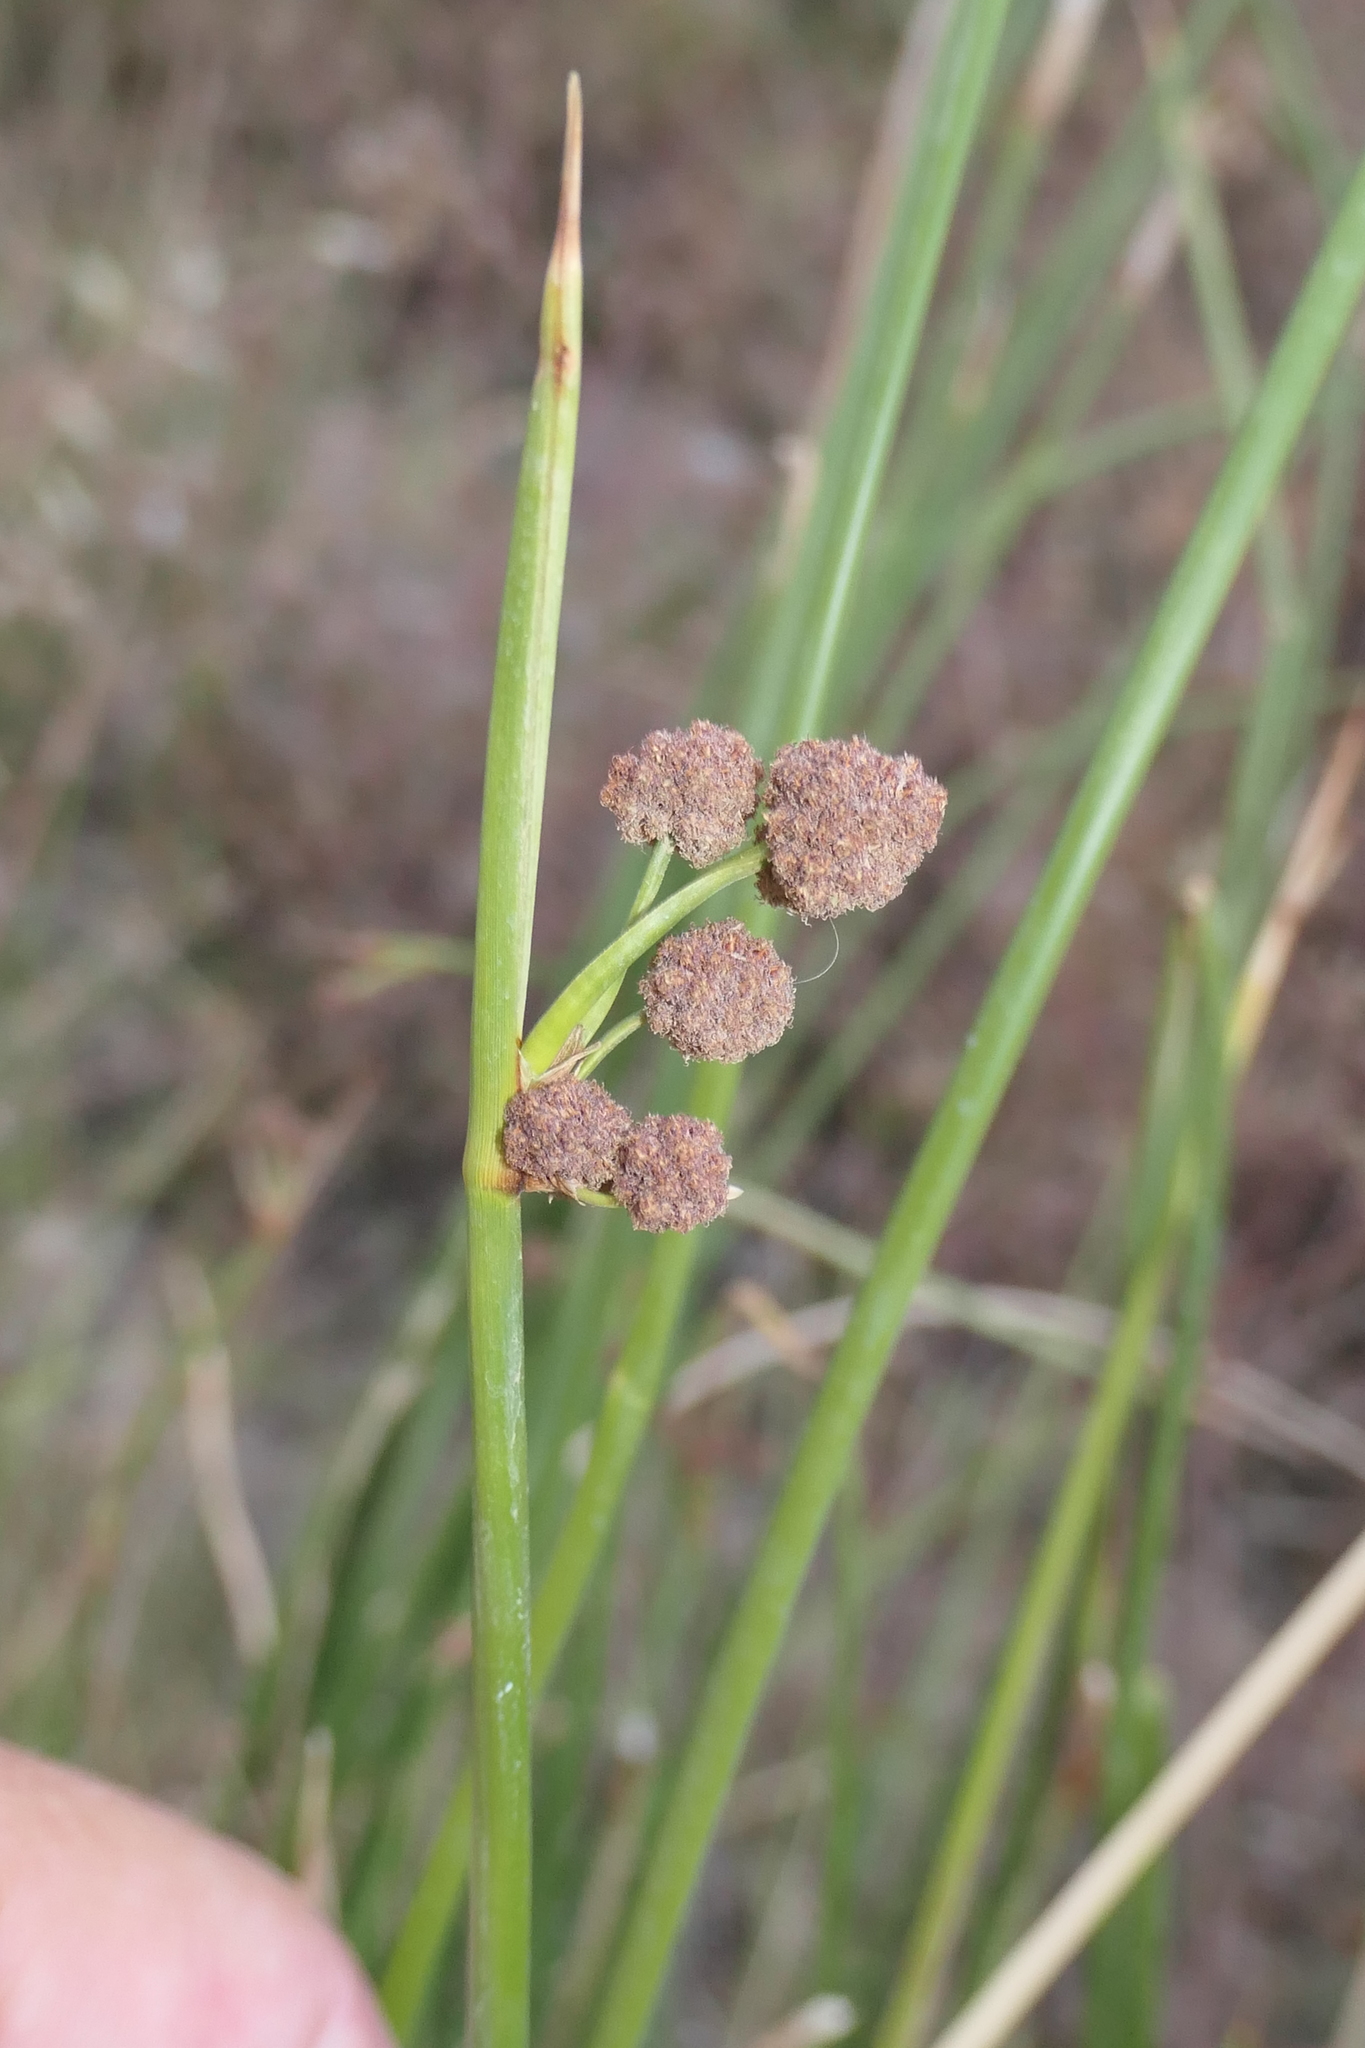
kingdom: Plantae
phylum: Tracheophyta
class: Liliopsida
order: Poales
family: Cyperaceae
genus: Scirpoides
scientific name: Scirpoides holoschoenus
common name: Round-headed club-rush
